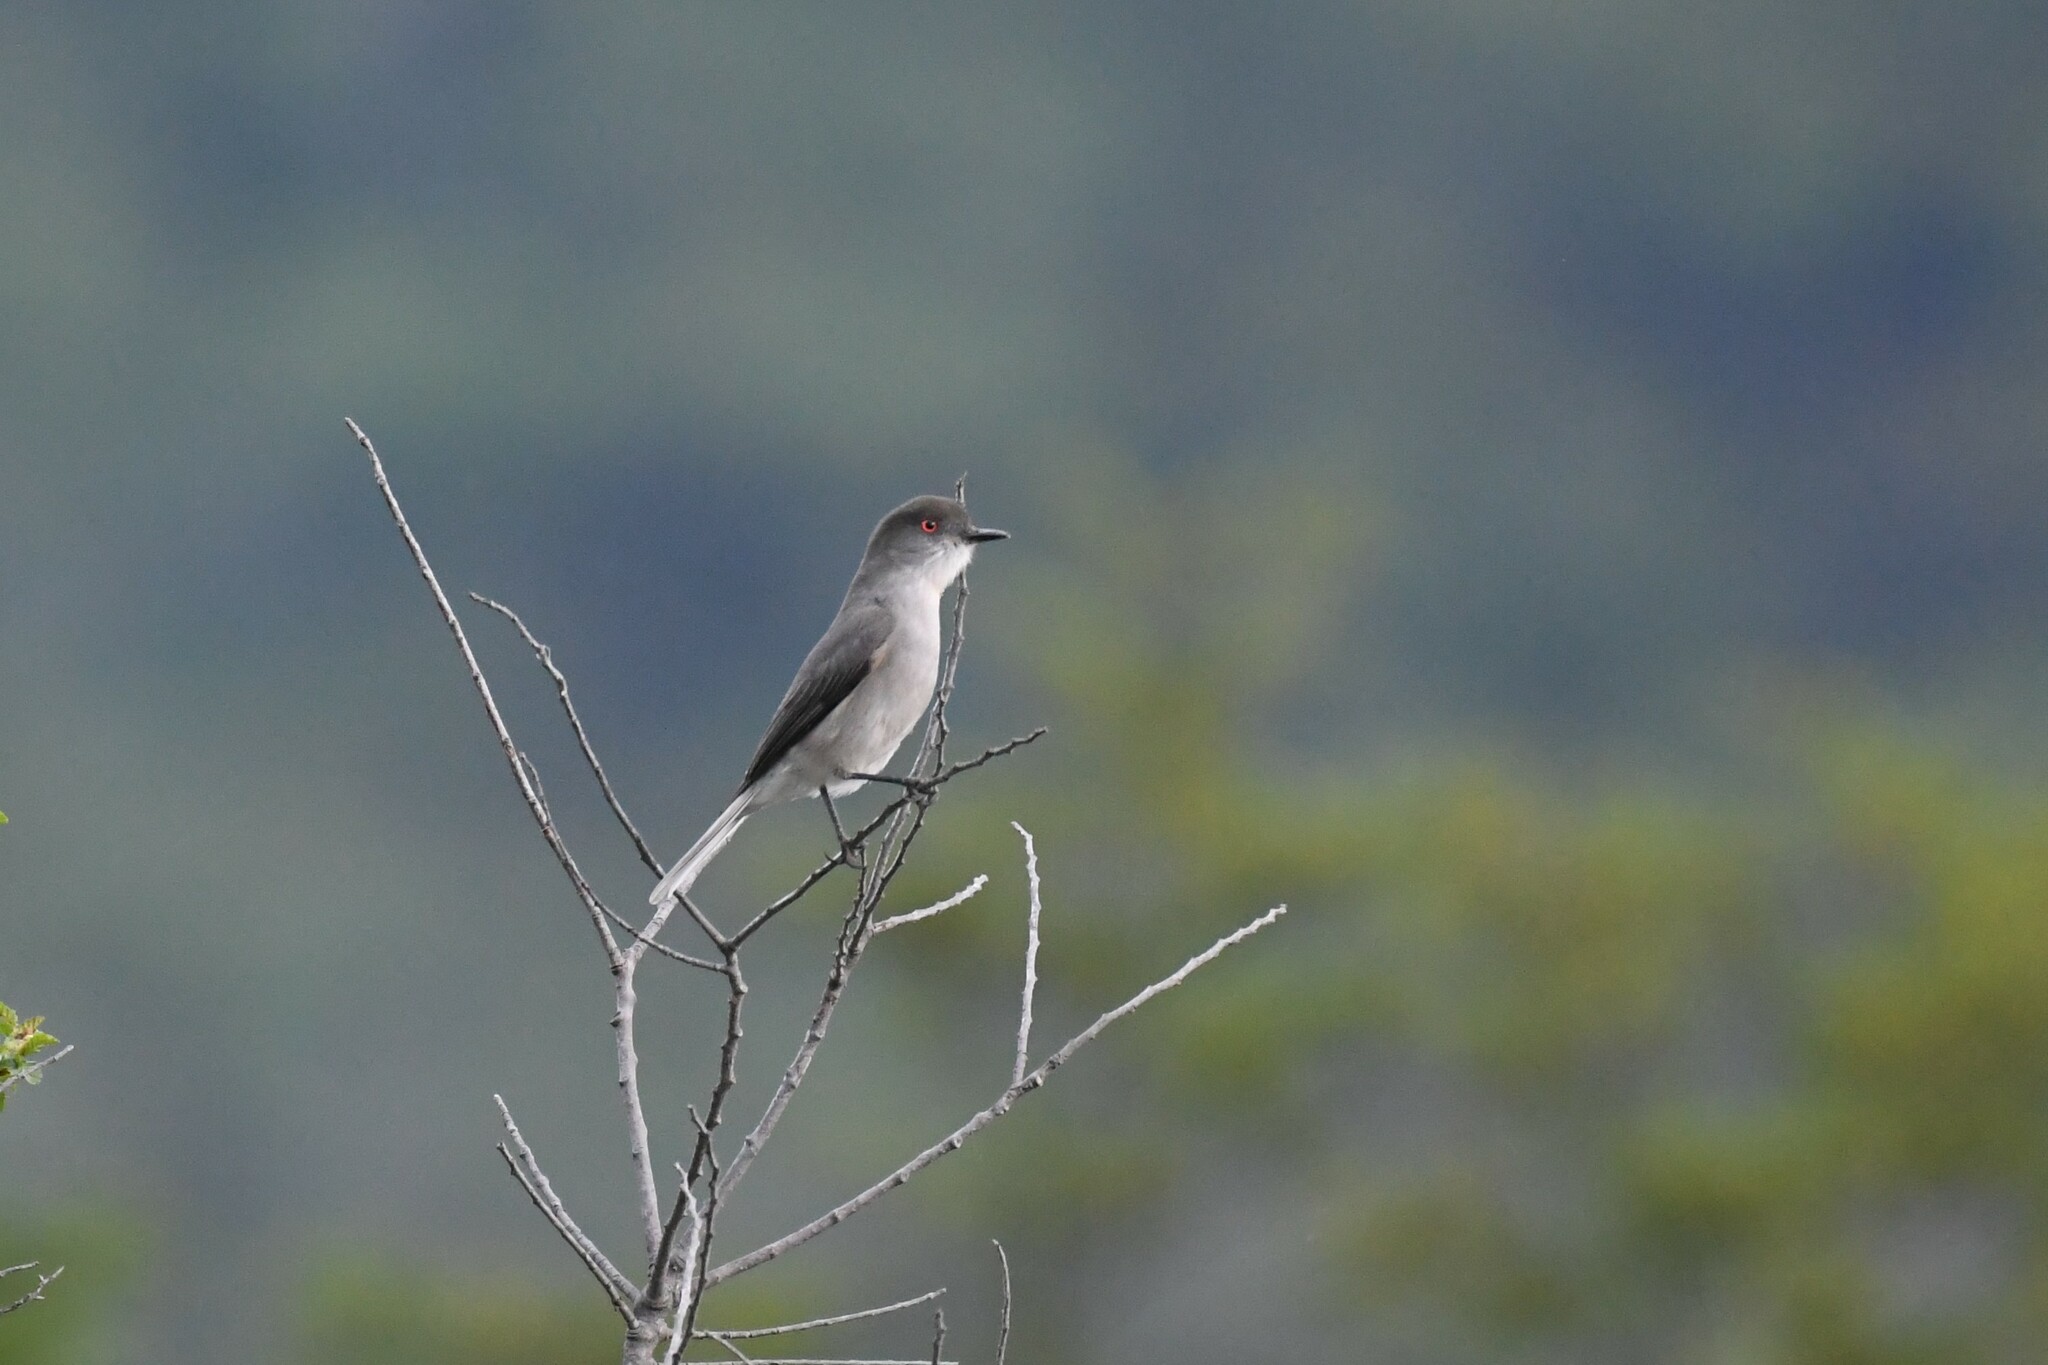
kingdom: Animalia
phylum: Chordata
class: Aves
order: Passeriformes
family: Tyrannidae
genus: Xolmis
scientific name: Xolmis pyrope
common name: Fire-eyed diucon
